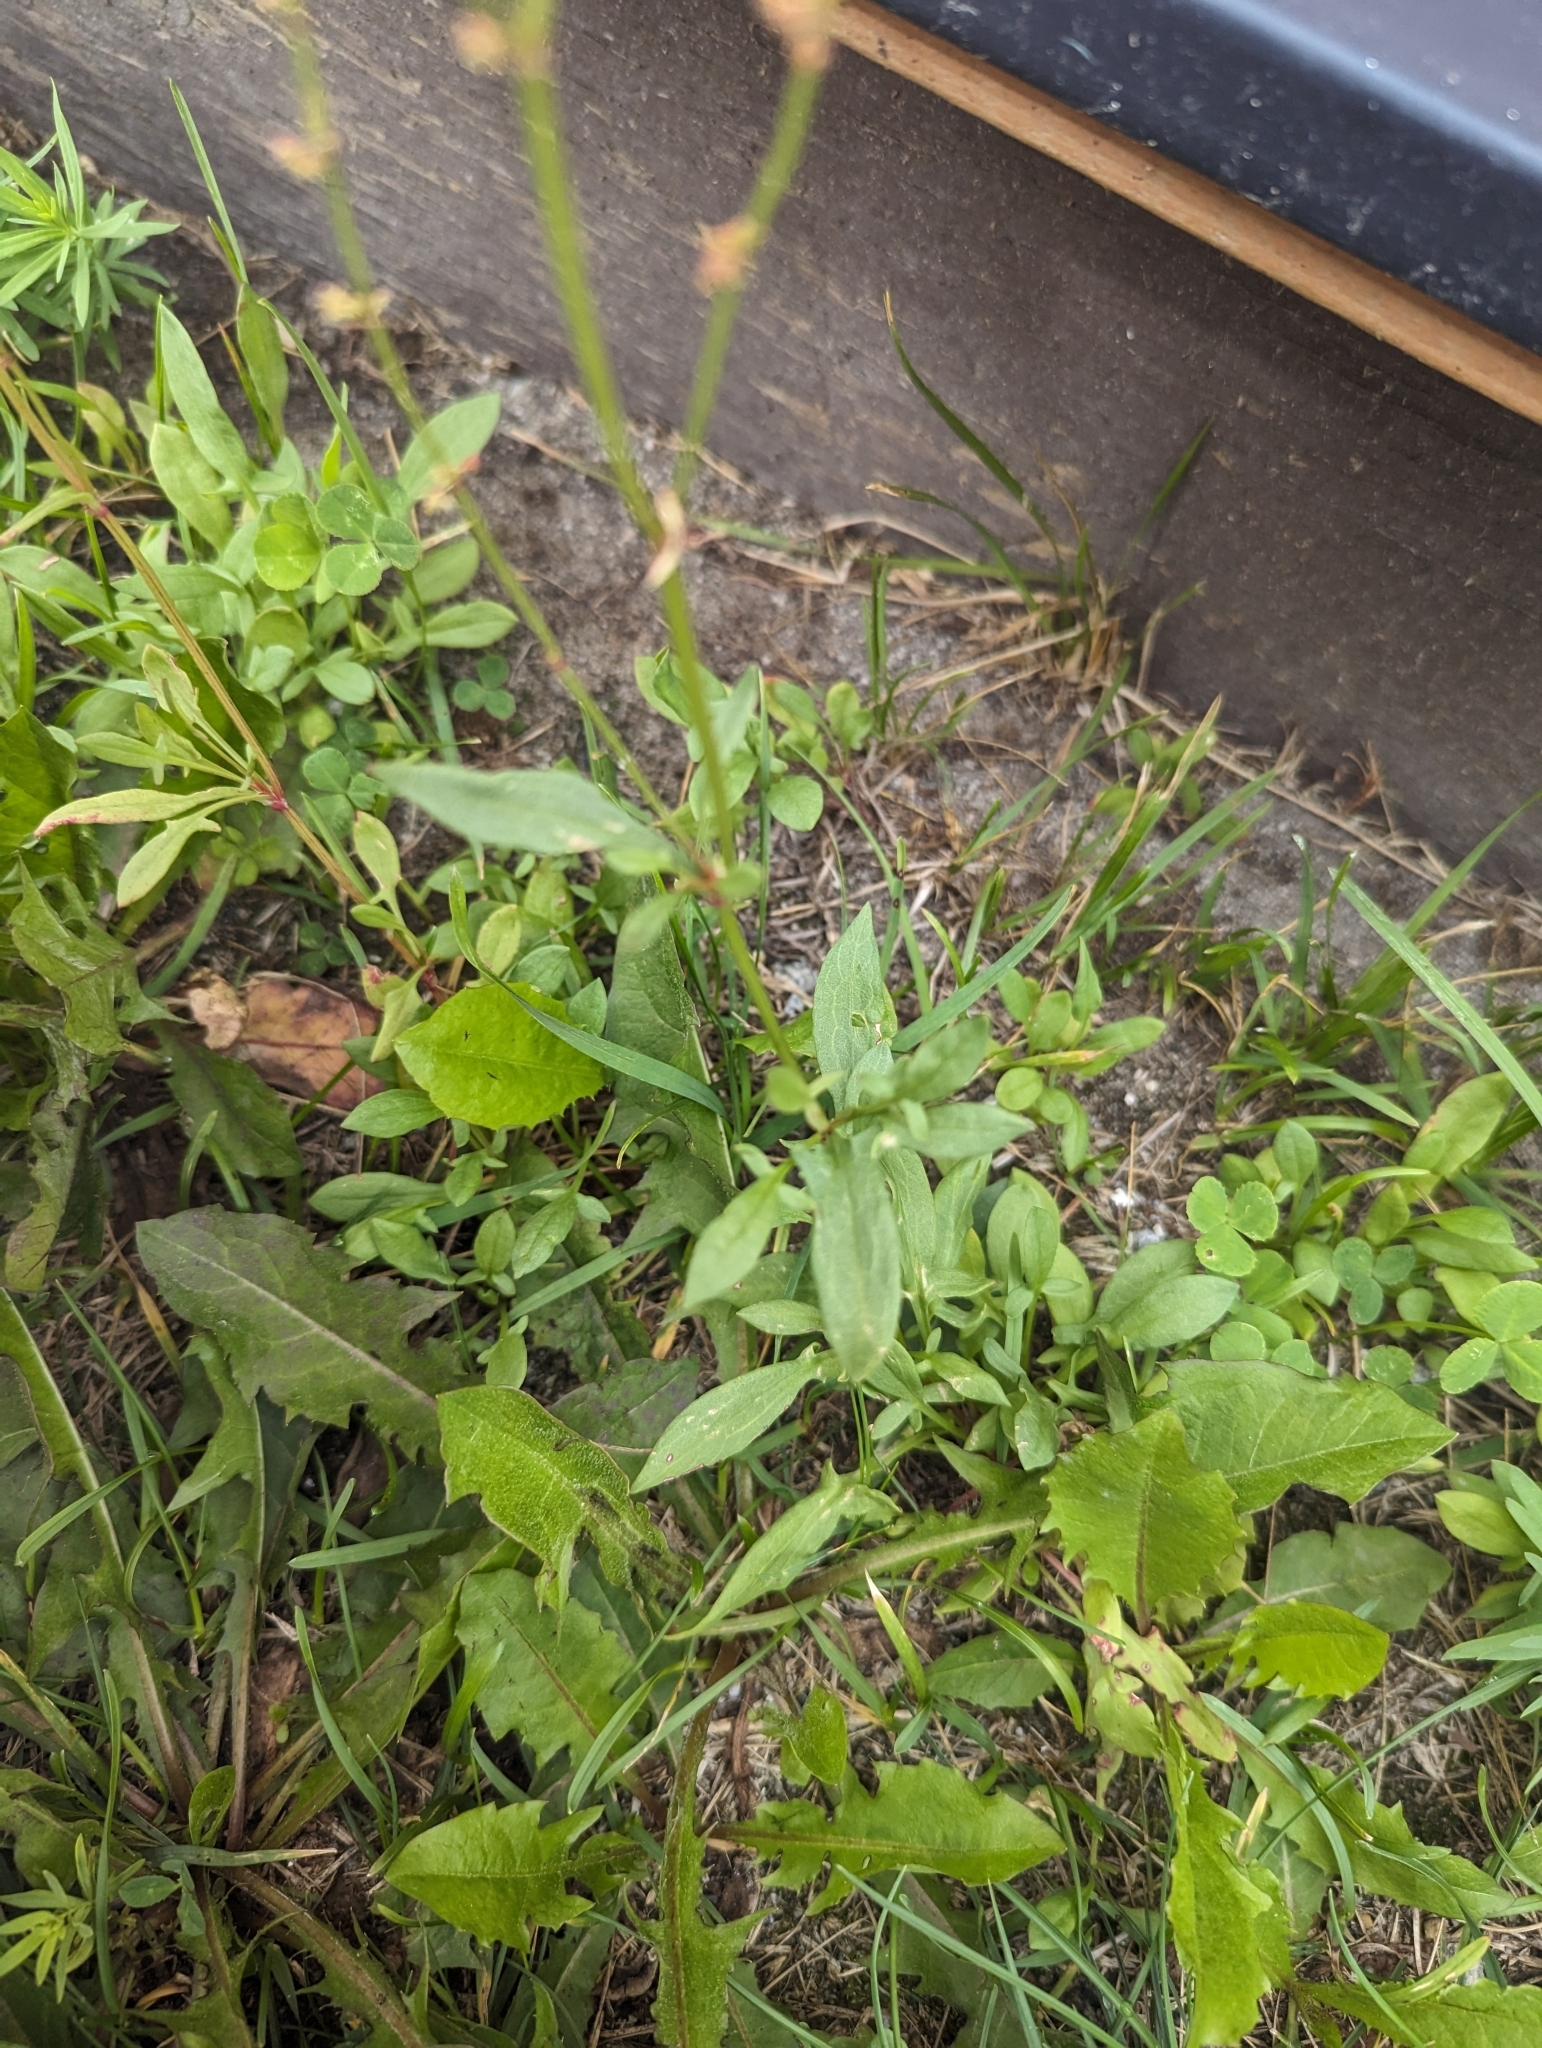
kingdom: Plantae
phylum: Tracheophyta
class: Magnoliopsida
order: Caryophyllales
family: Polygonaceae
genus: Rumex
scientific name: Rumex acetosella
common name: Common sheep sorrel
